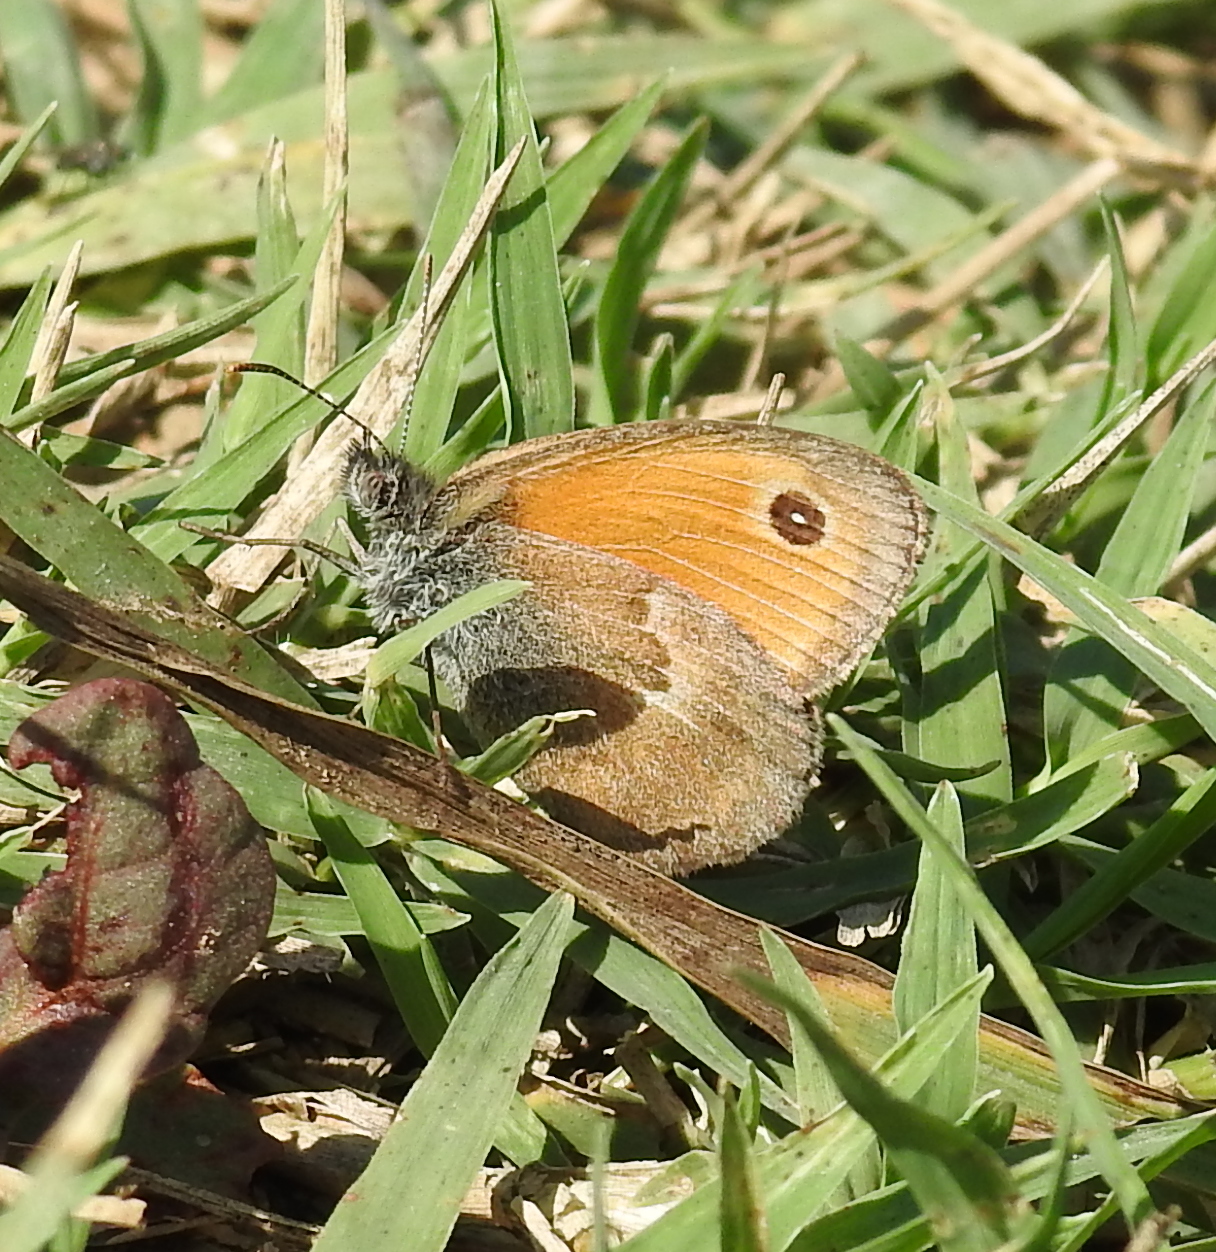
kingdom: Animalia
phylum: Arthropoda
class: Insecta
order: Lepidoptera
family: Nymphalidae
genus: Coenonympha
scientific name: Coenonympha pamphilus
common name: Small heath
